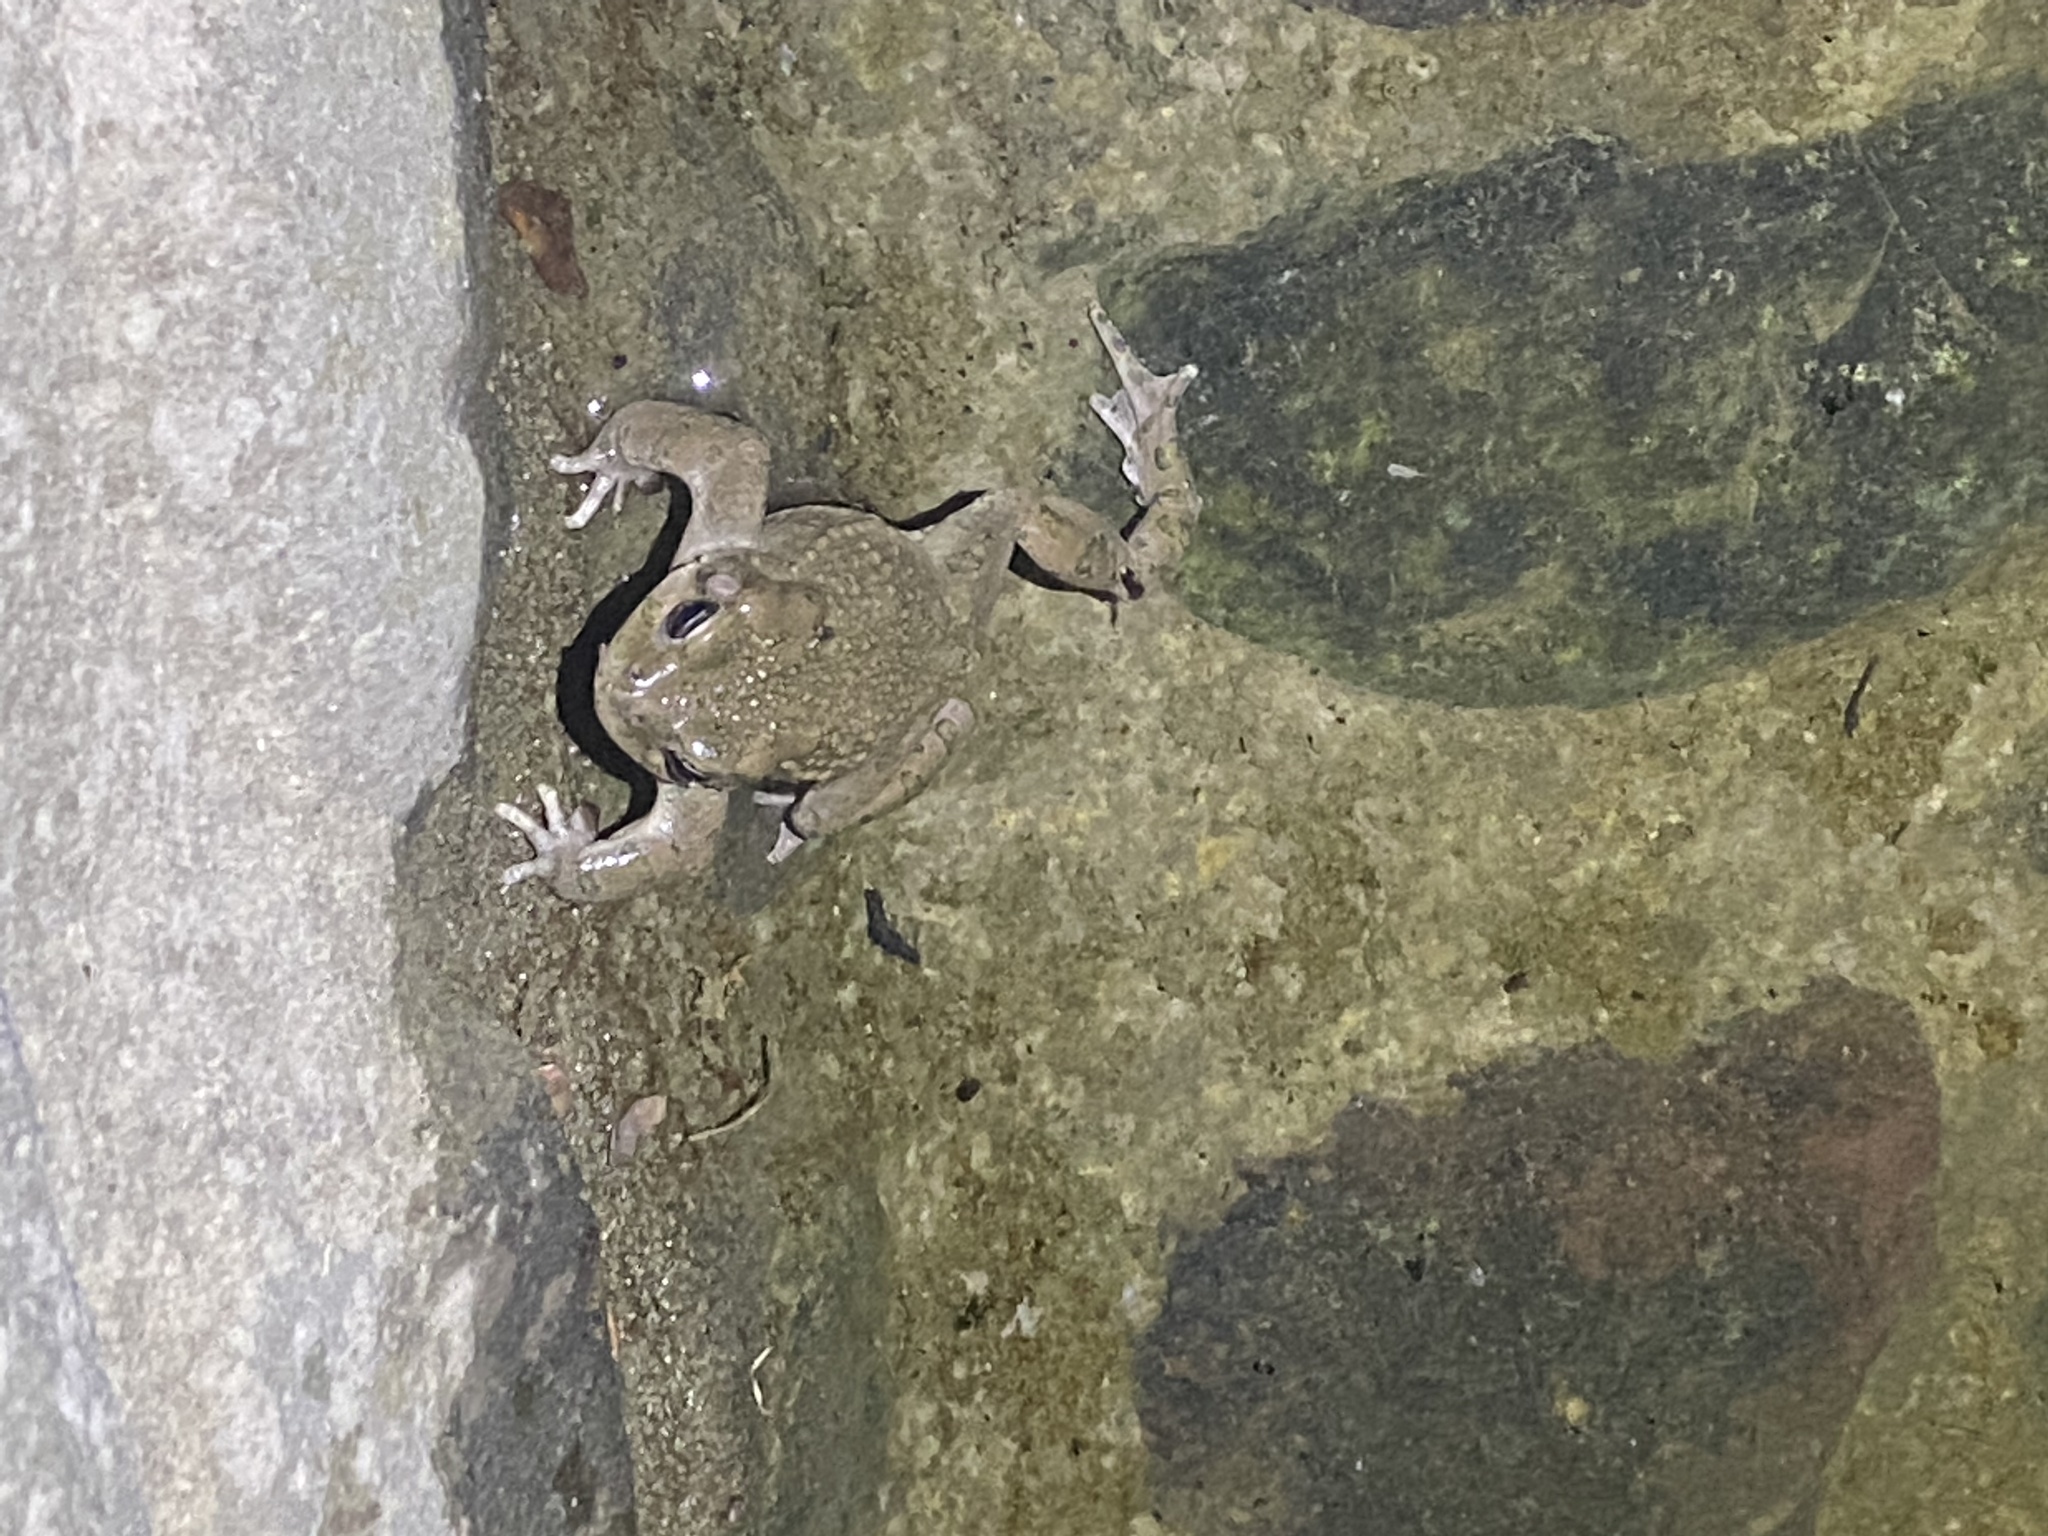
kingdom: Animalia
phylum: Chordata
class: Amphibia
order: Anura
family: Bufonidae
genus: Bufotes
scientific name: Bufotes viridis
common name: European green toad
